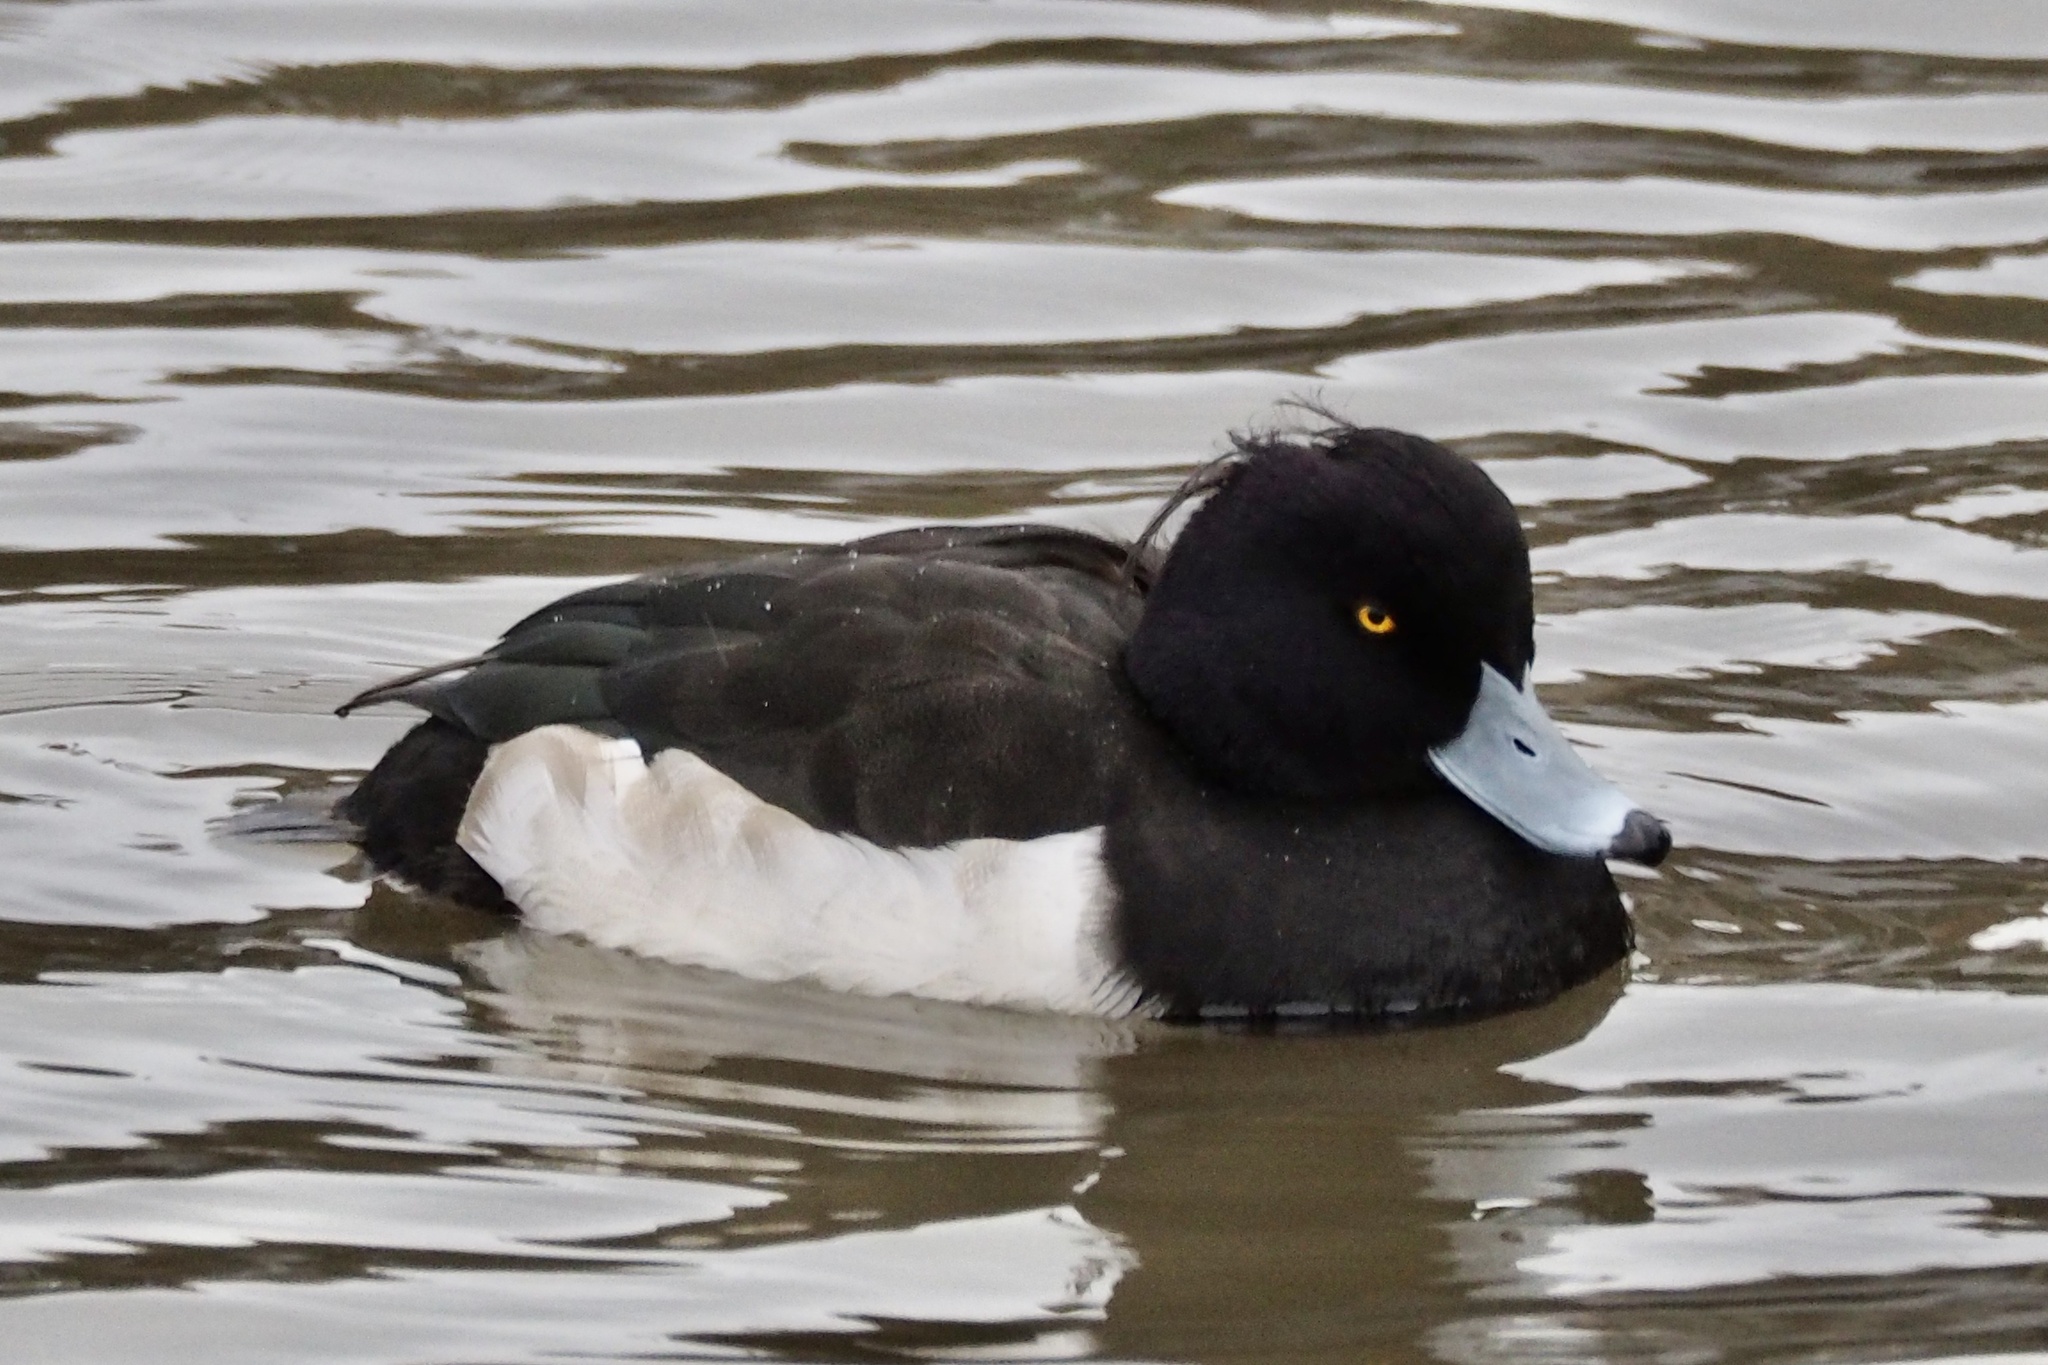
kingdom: Animalia
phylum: Chordata
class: Aves
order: Anseriformes
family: Anatidae
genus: Aythya
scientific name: Aythya fuligula
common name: Tufted duck
